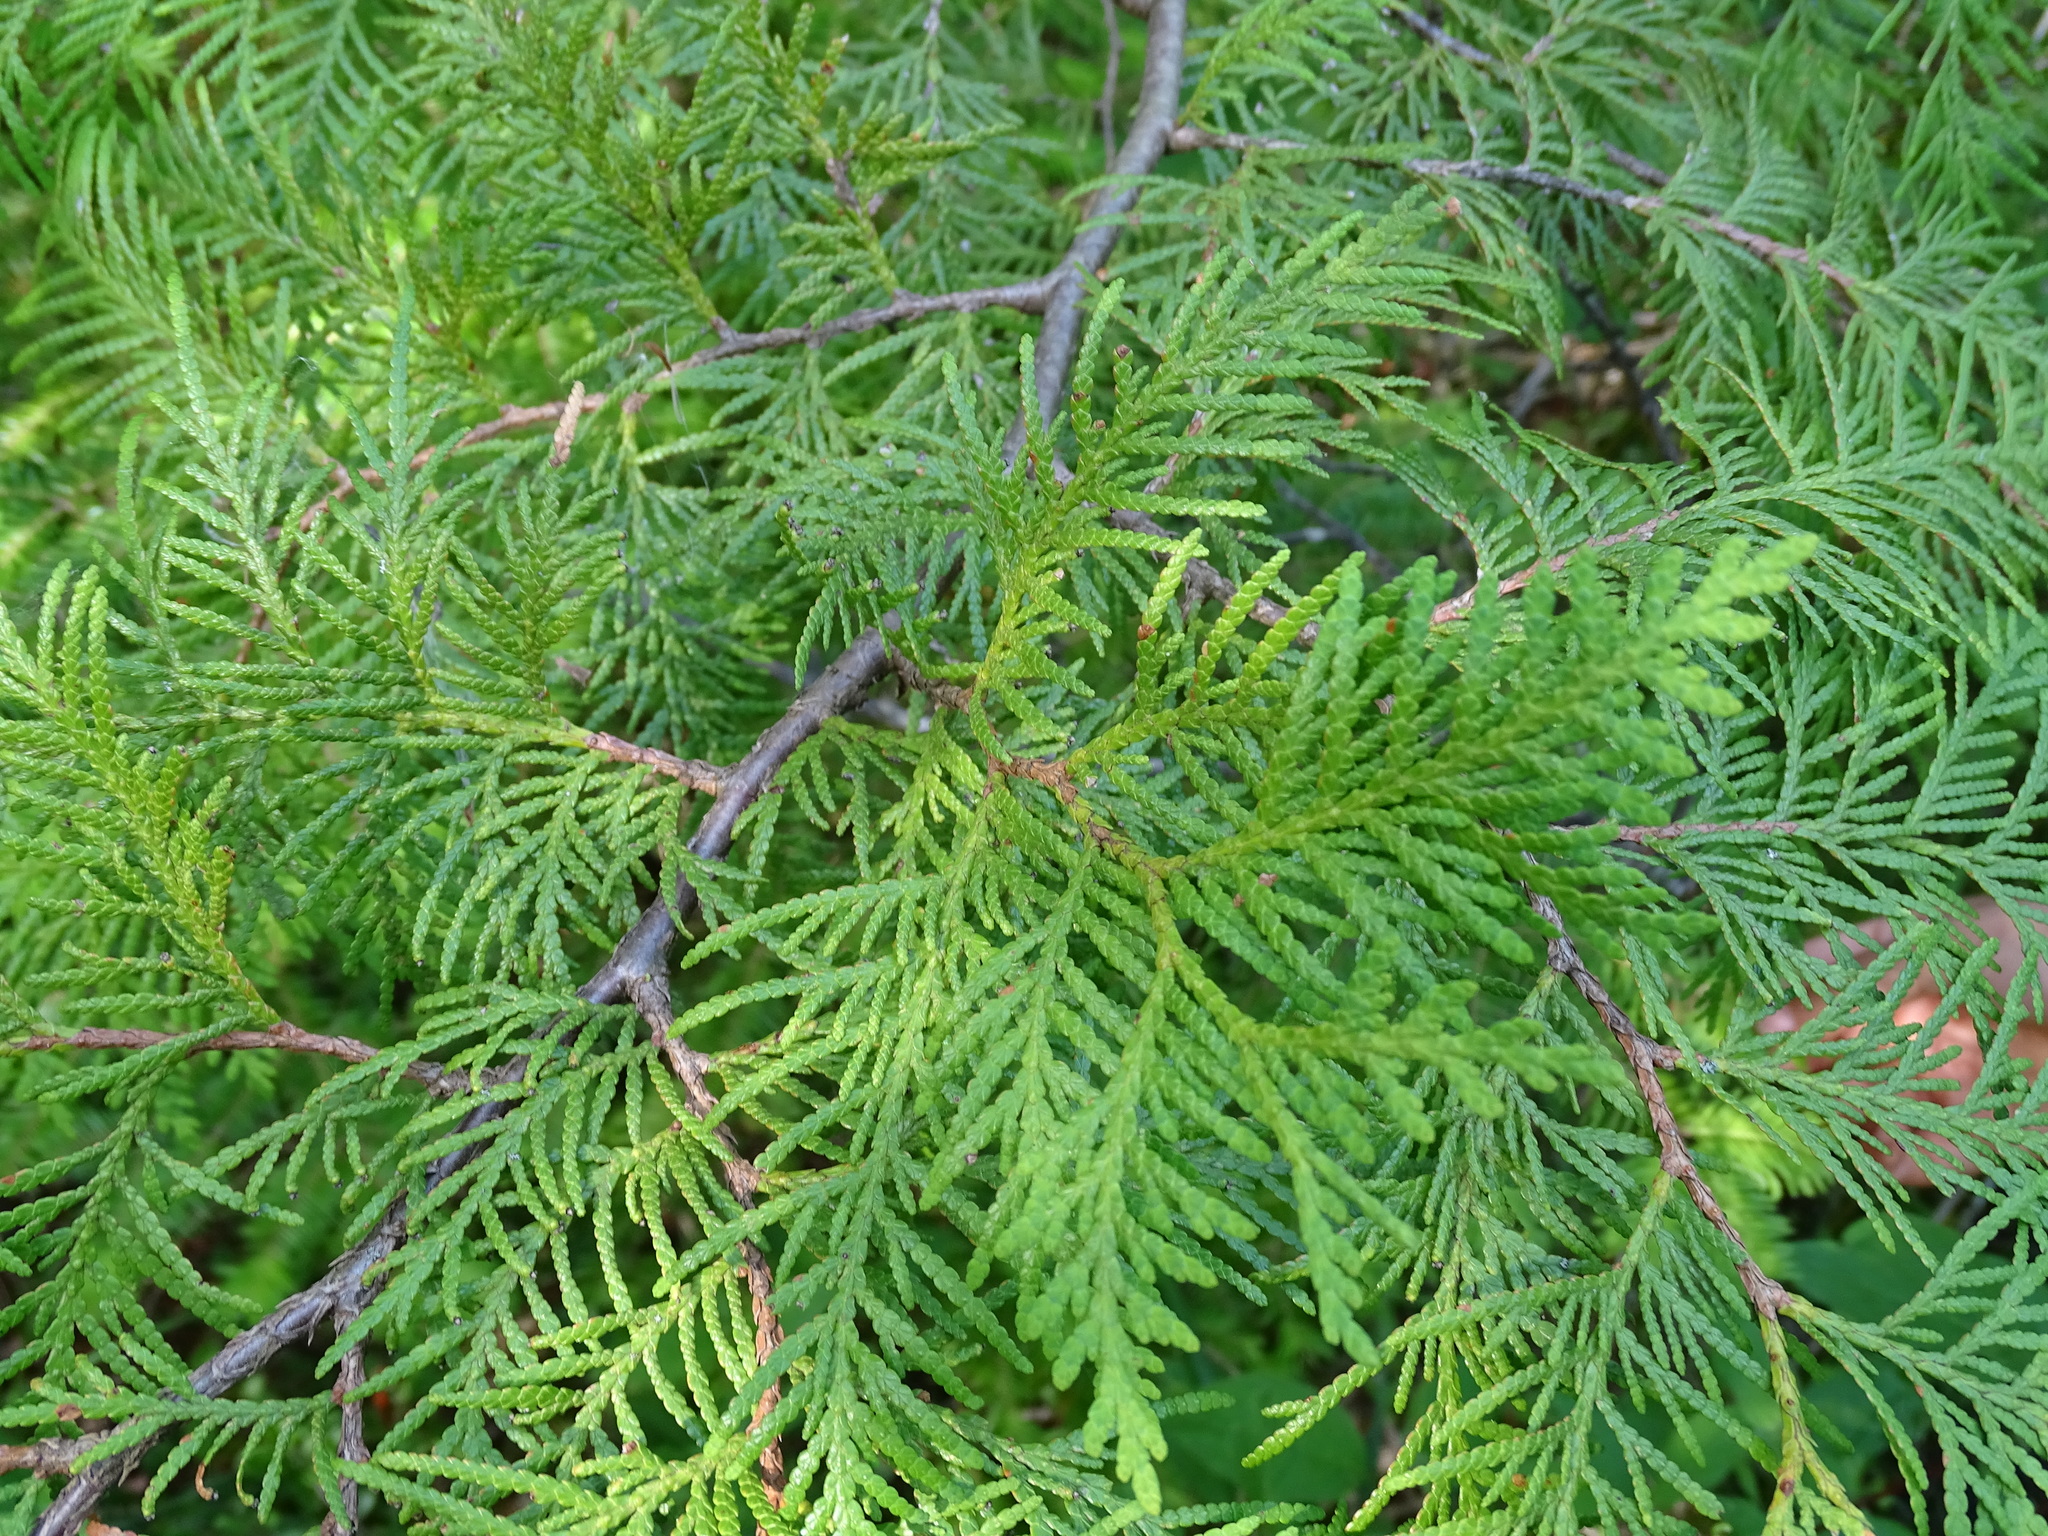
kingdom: Plantae
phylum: Tracheophyta
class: Pinopsida
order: Pinales
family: Cupressaceae
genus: Thuja
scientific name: Thuja occidentalis
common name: Northern white-cedar
